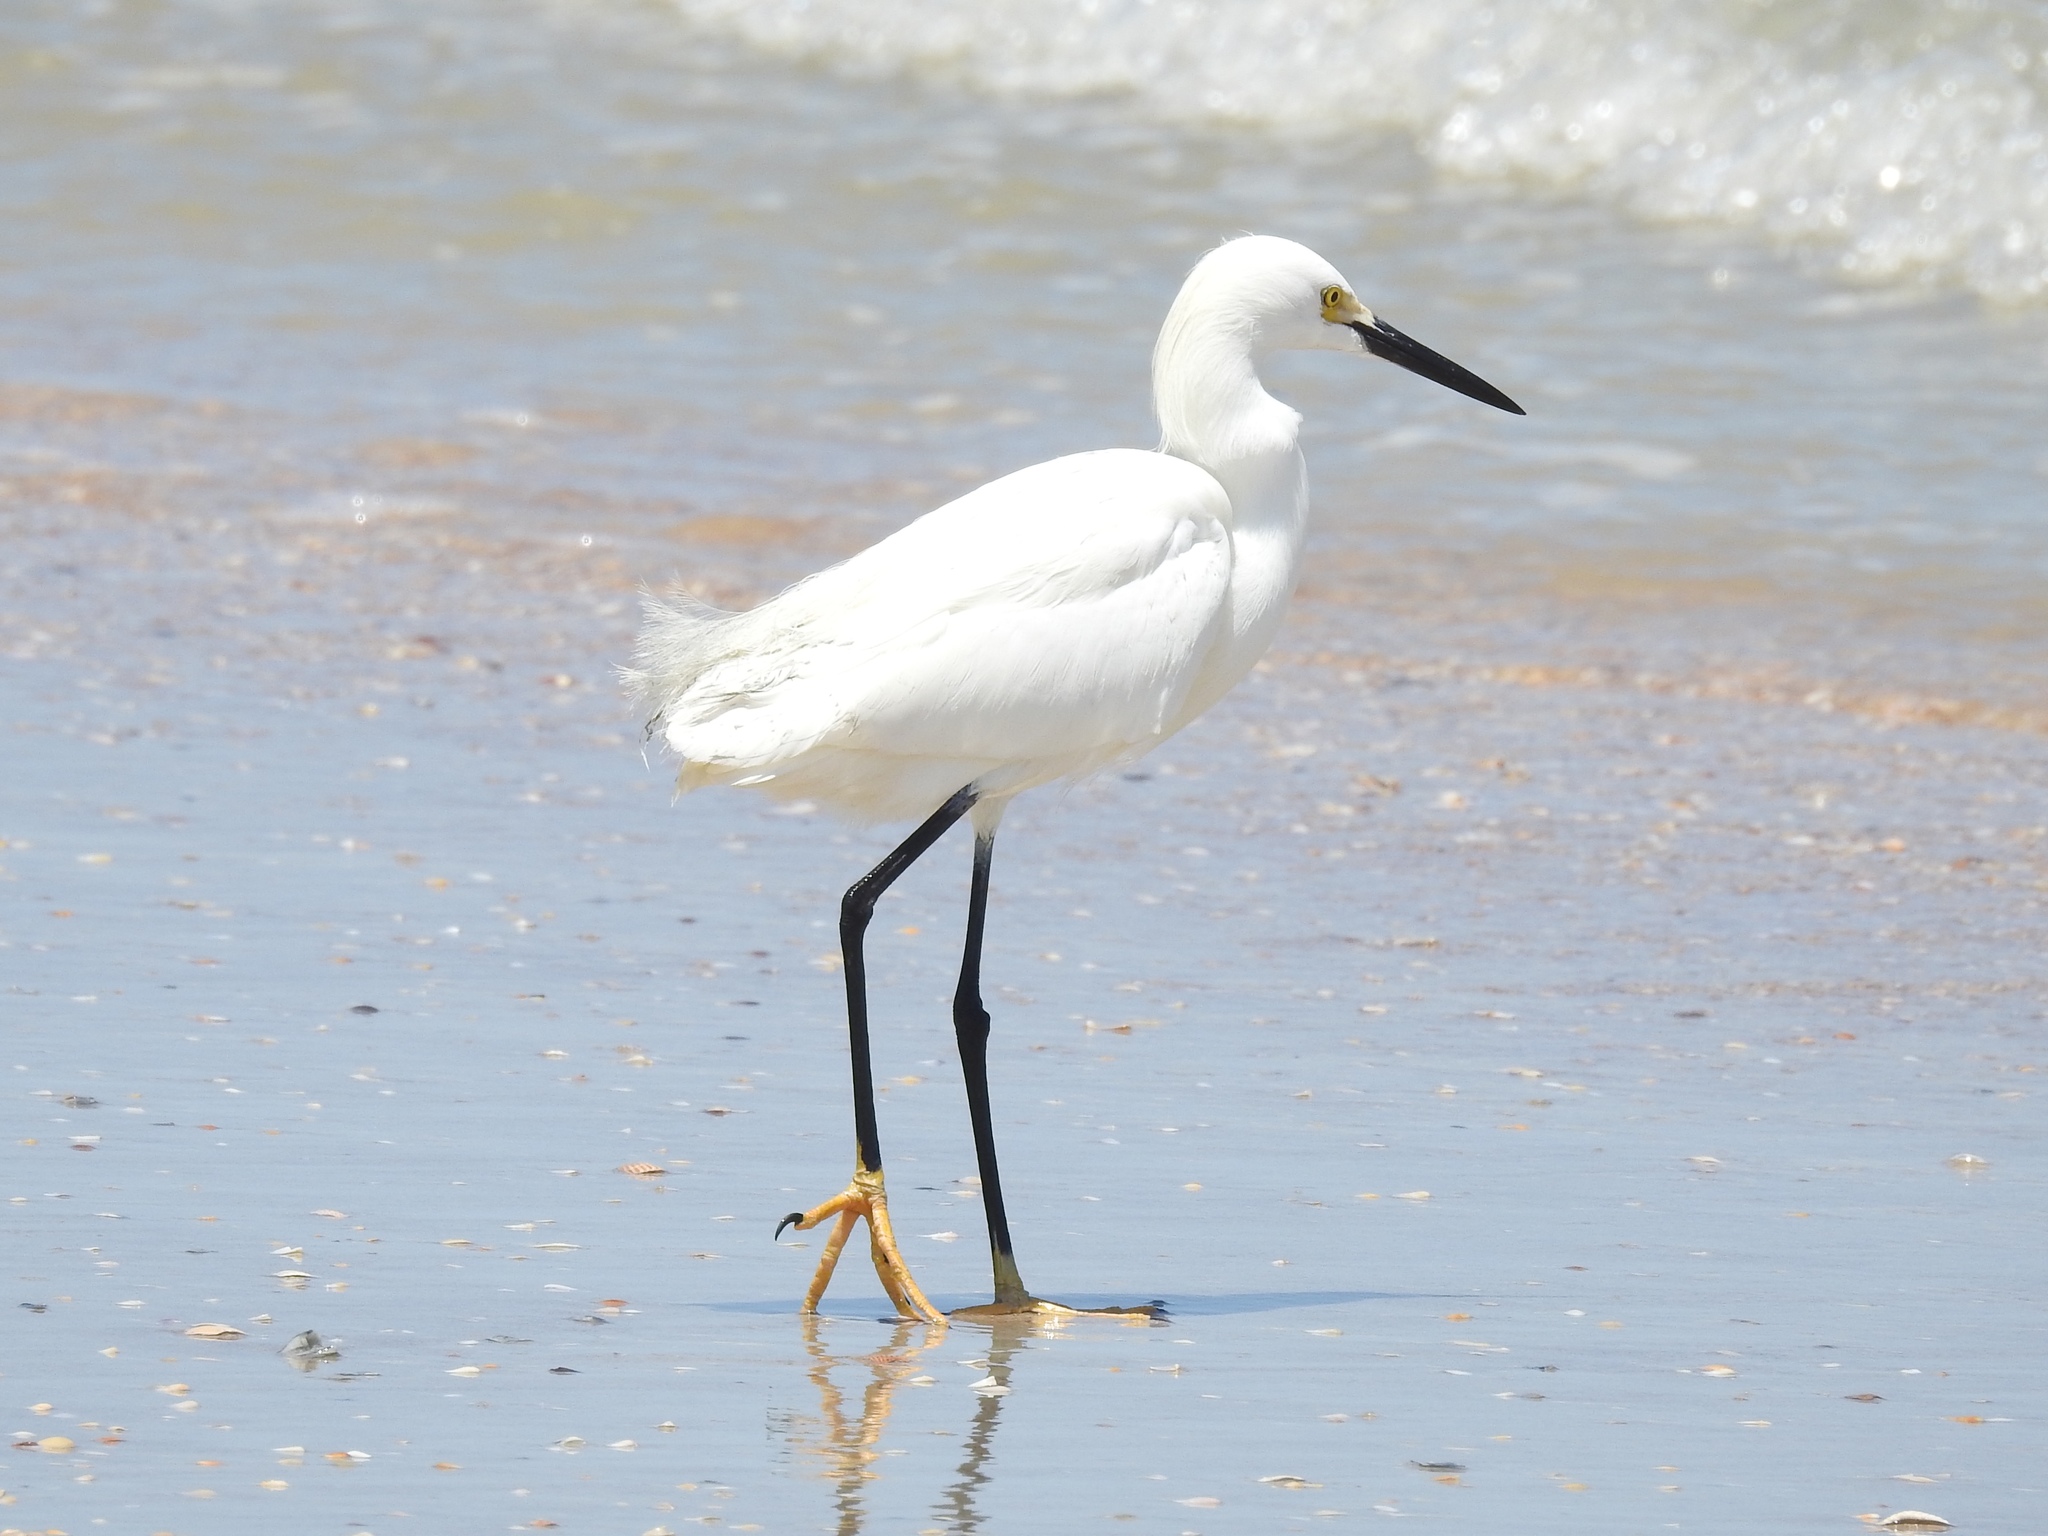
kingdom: Animalia
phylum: Chordata
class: Aves
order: Pelecaniformes
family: Ardeidae
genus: Egretta
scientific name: Egretta thula
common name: Snowy egret
